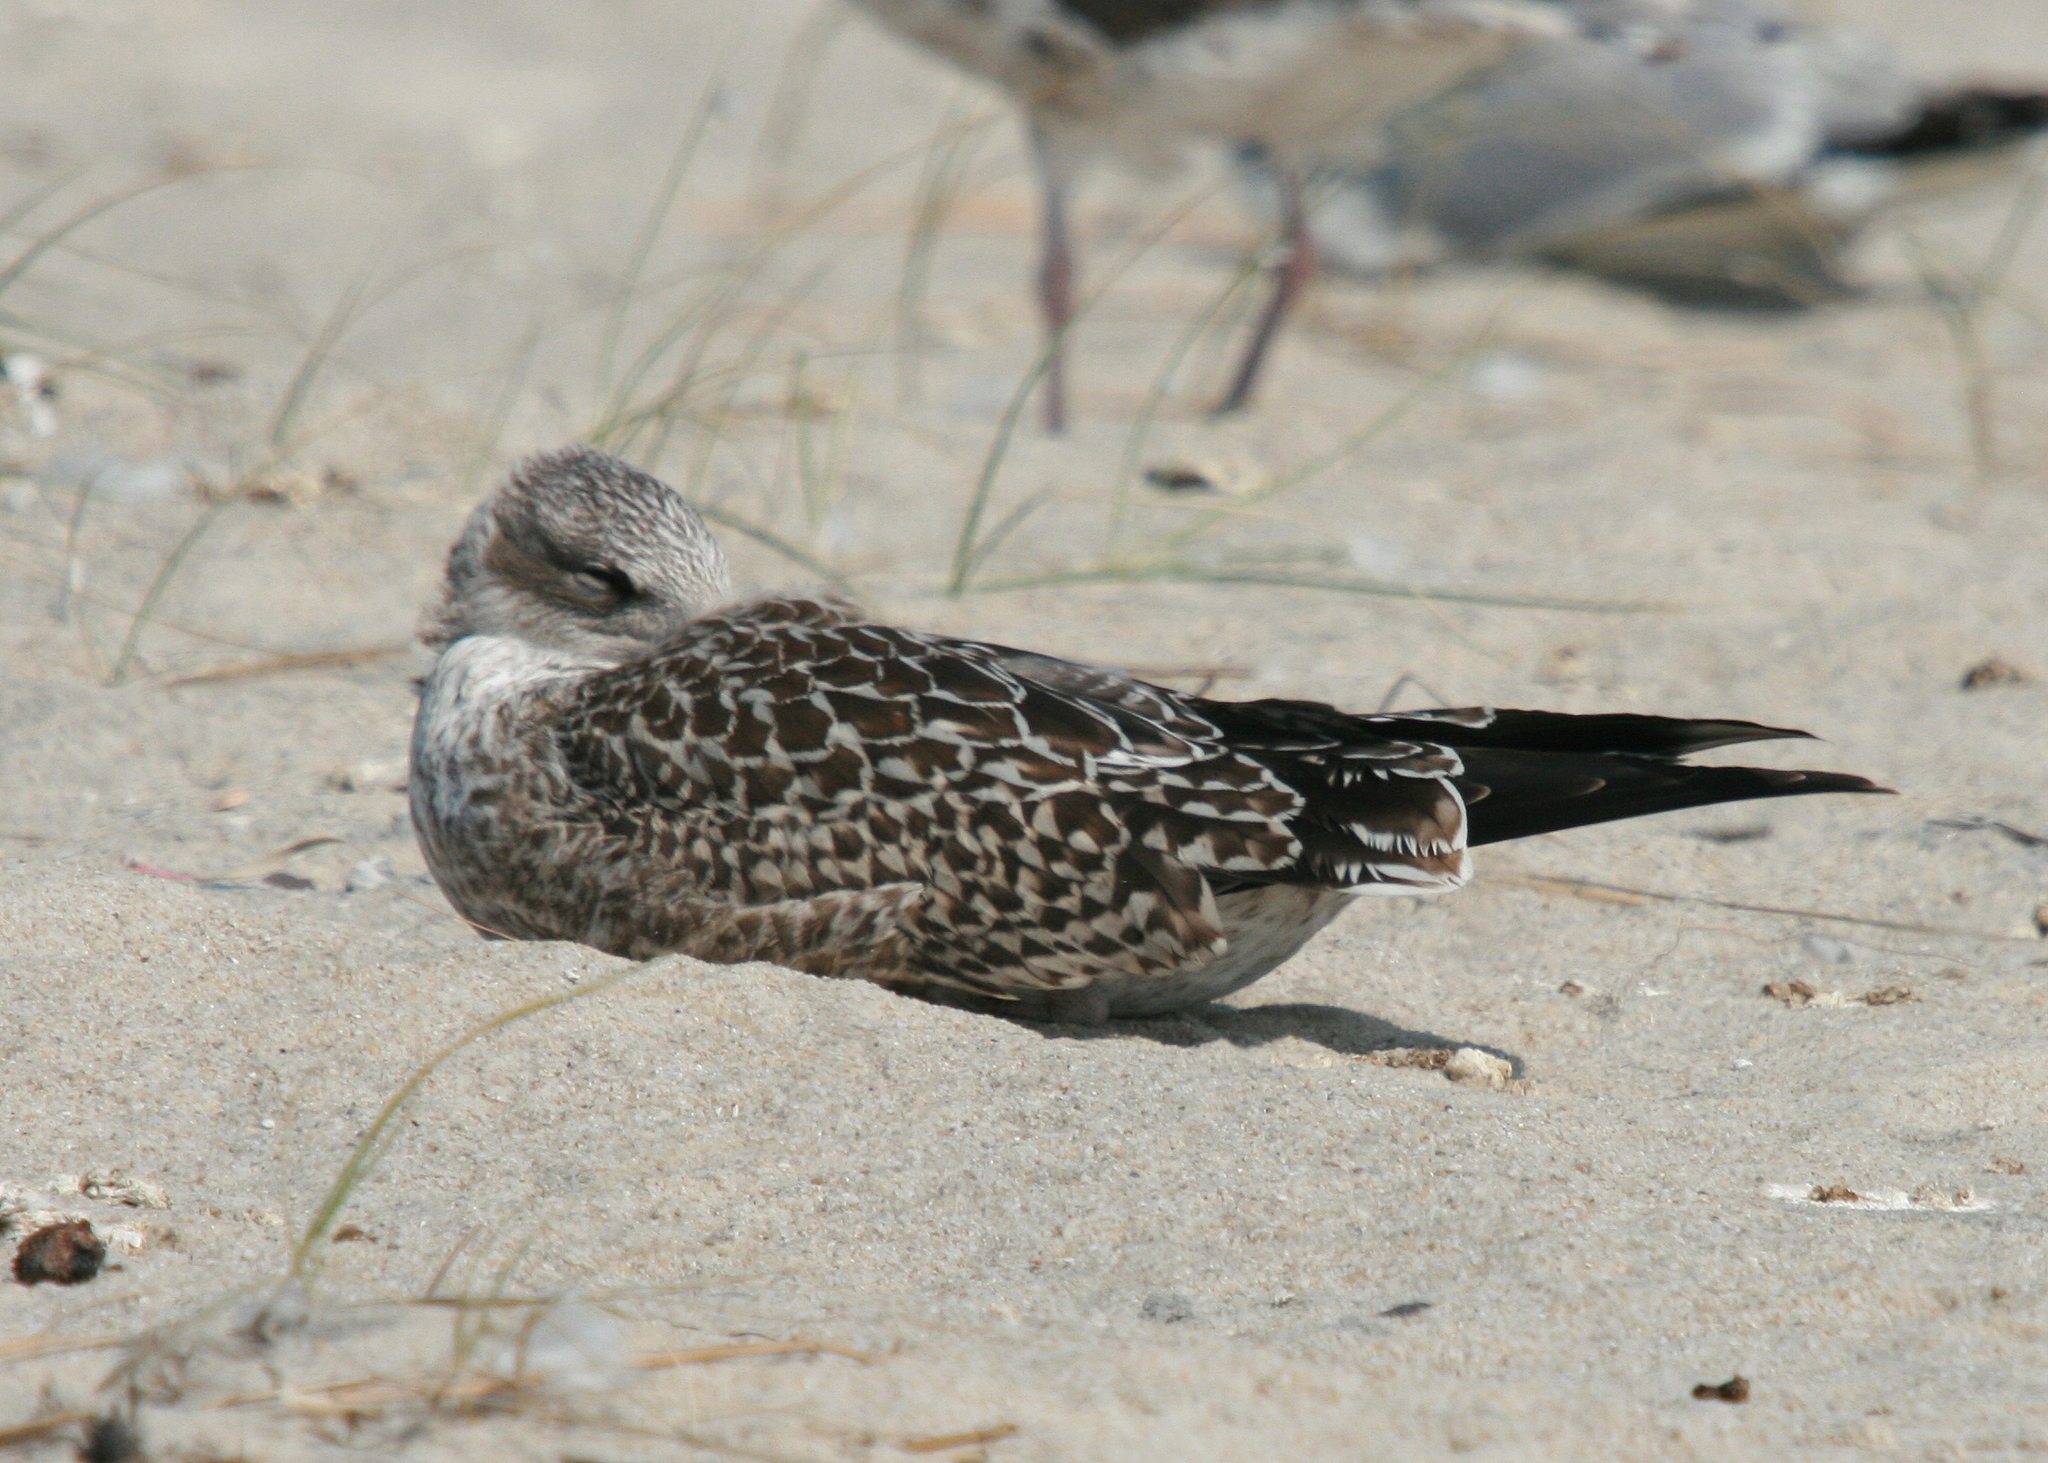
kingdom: Animalia
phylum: Chordata
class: Aves
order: Charadriiformes
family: Laridae
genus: Larus
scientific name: Larus fuscus
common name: Lesser black-backed gull
